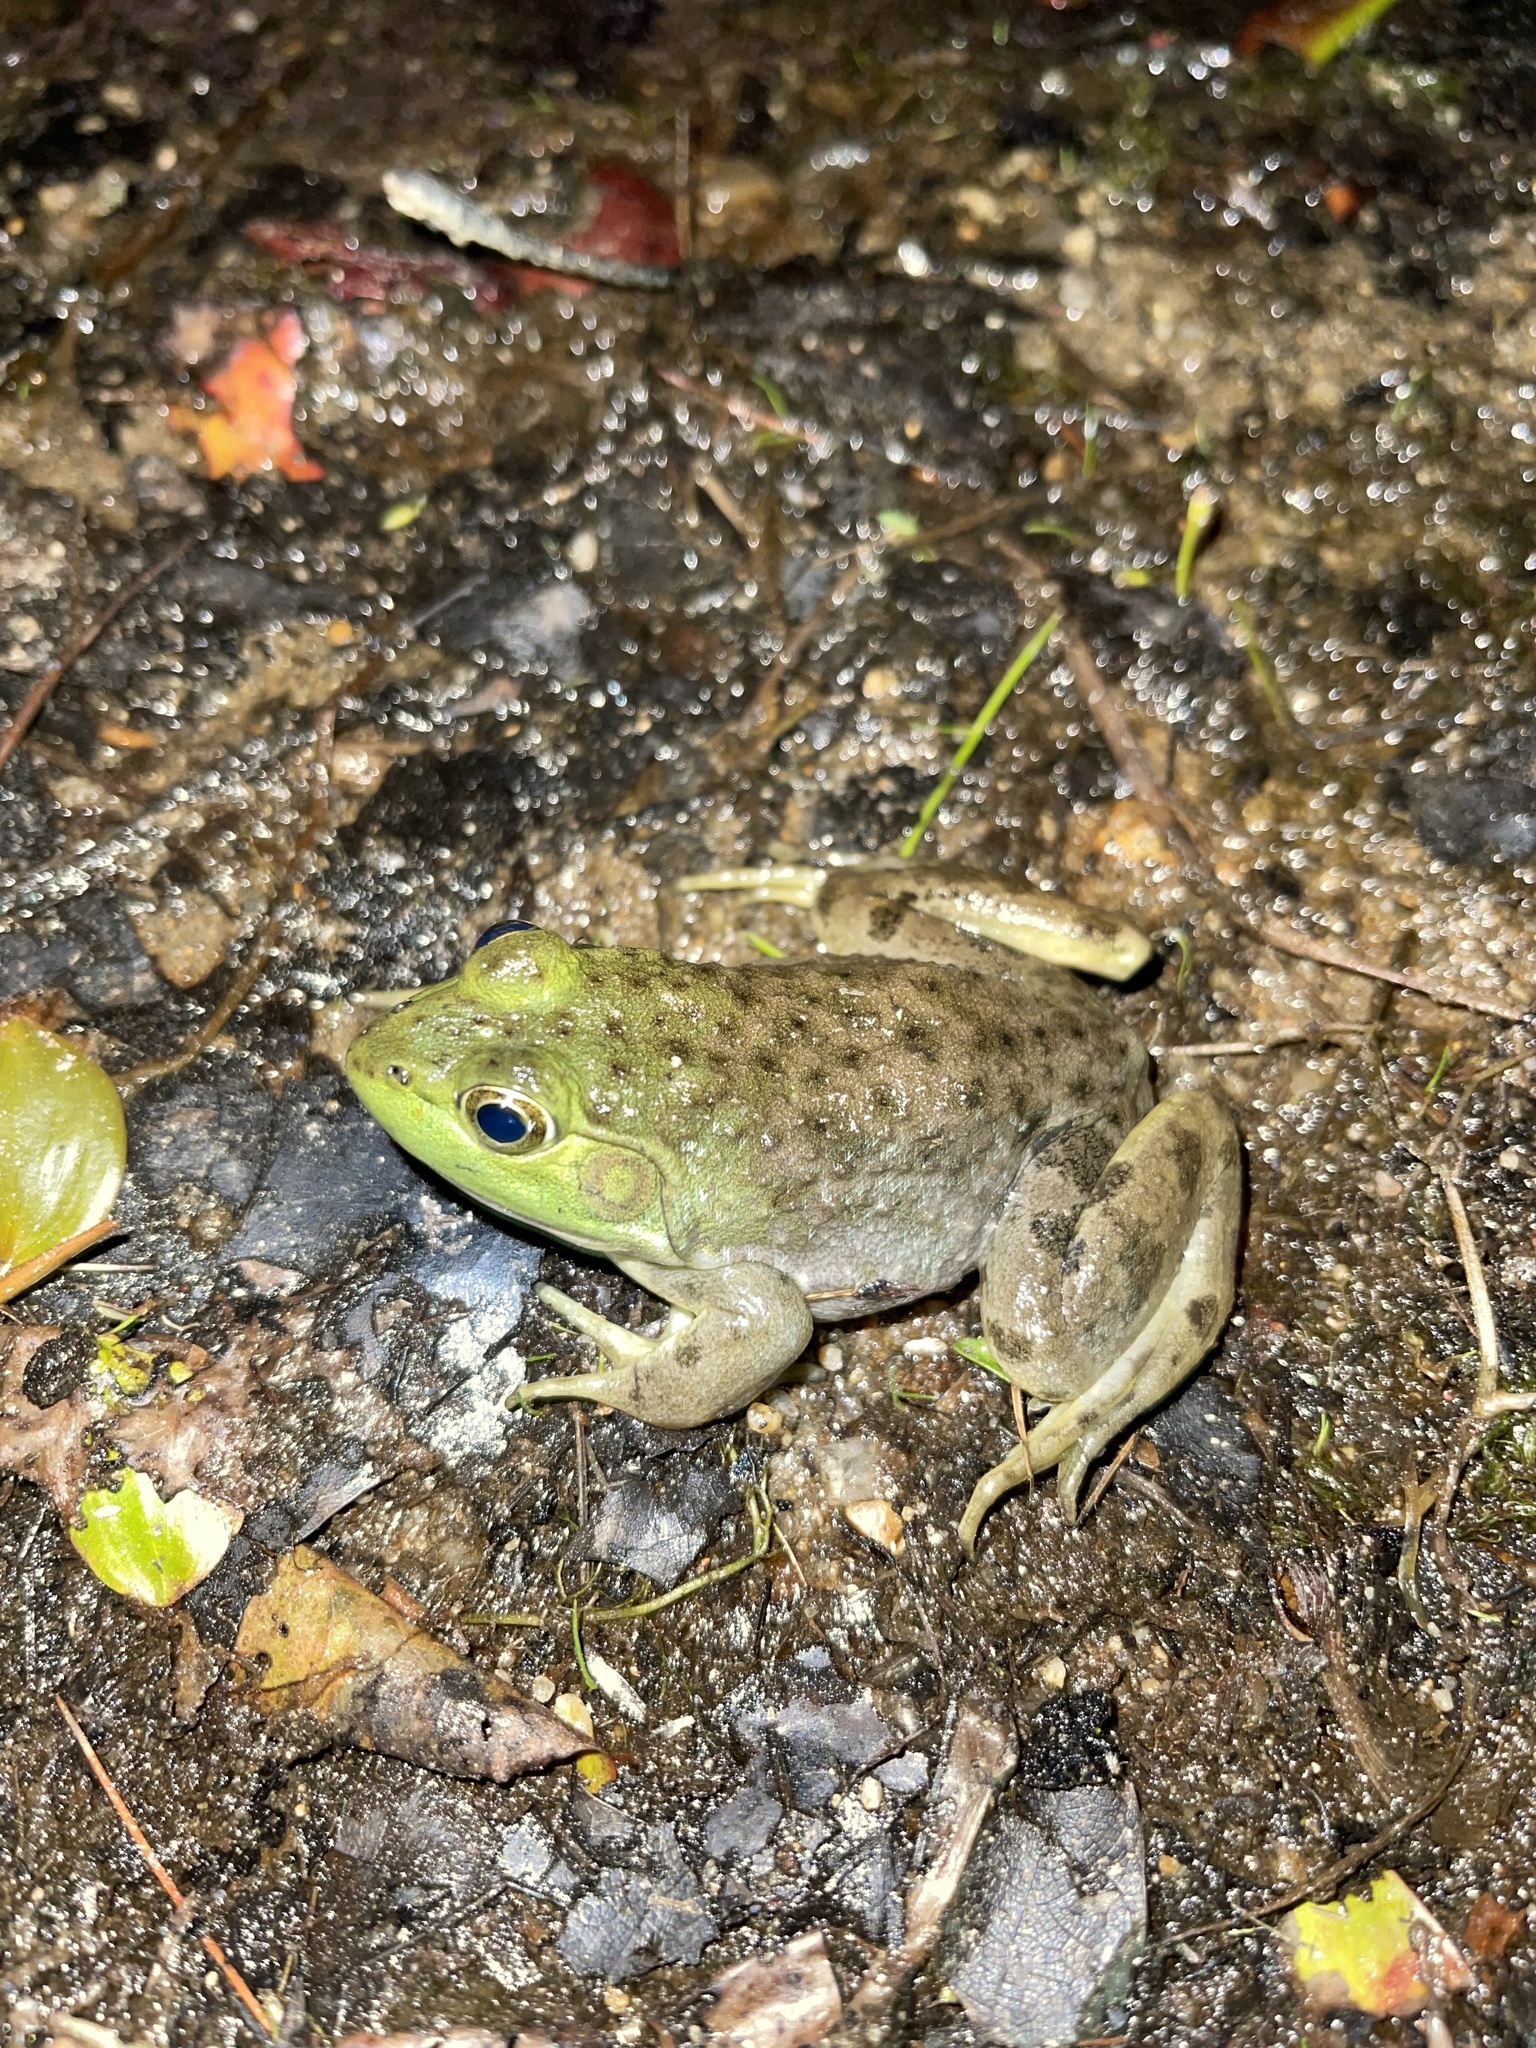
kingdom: Animalia
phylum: Chordata
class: Amphibia
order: Anura
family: Ranidae
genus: Lithobates
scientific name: Lithobates catesbeianus
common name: American bullfrog
